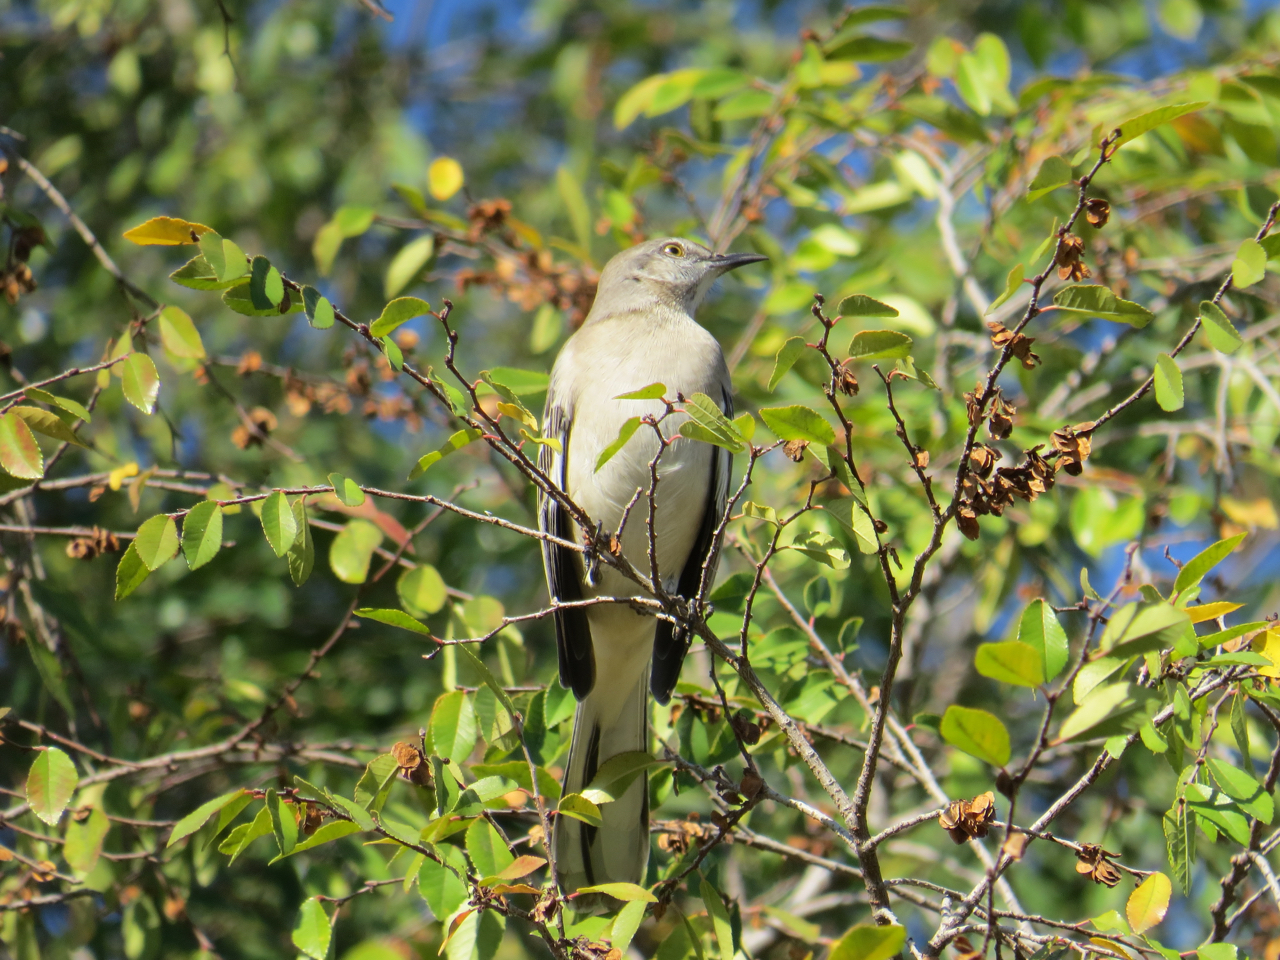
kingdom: Animalia
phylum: Chordata
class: Aves
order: Passeriformes
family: Mimidae
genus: Mimus
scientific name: Mimus polyglottos
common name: Northern mockingbird
